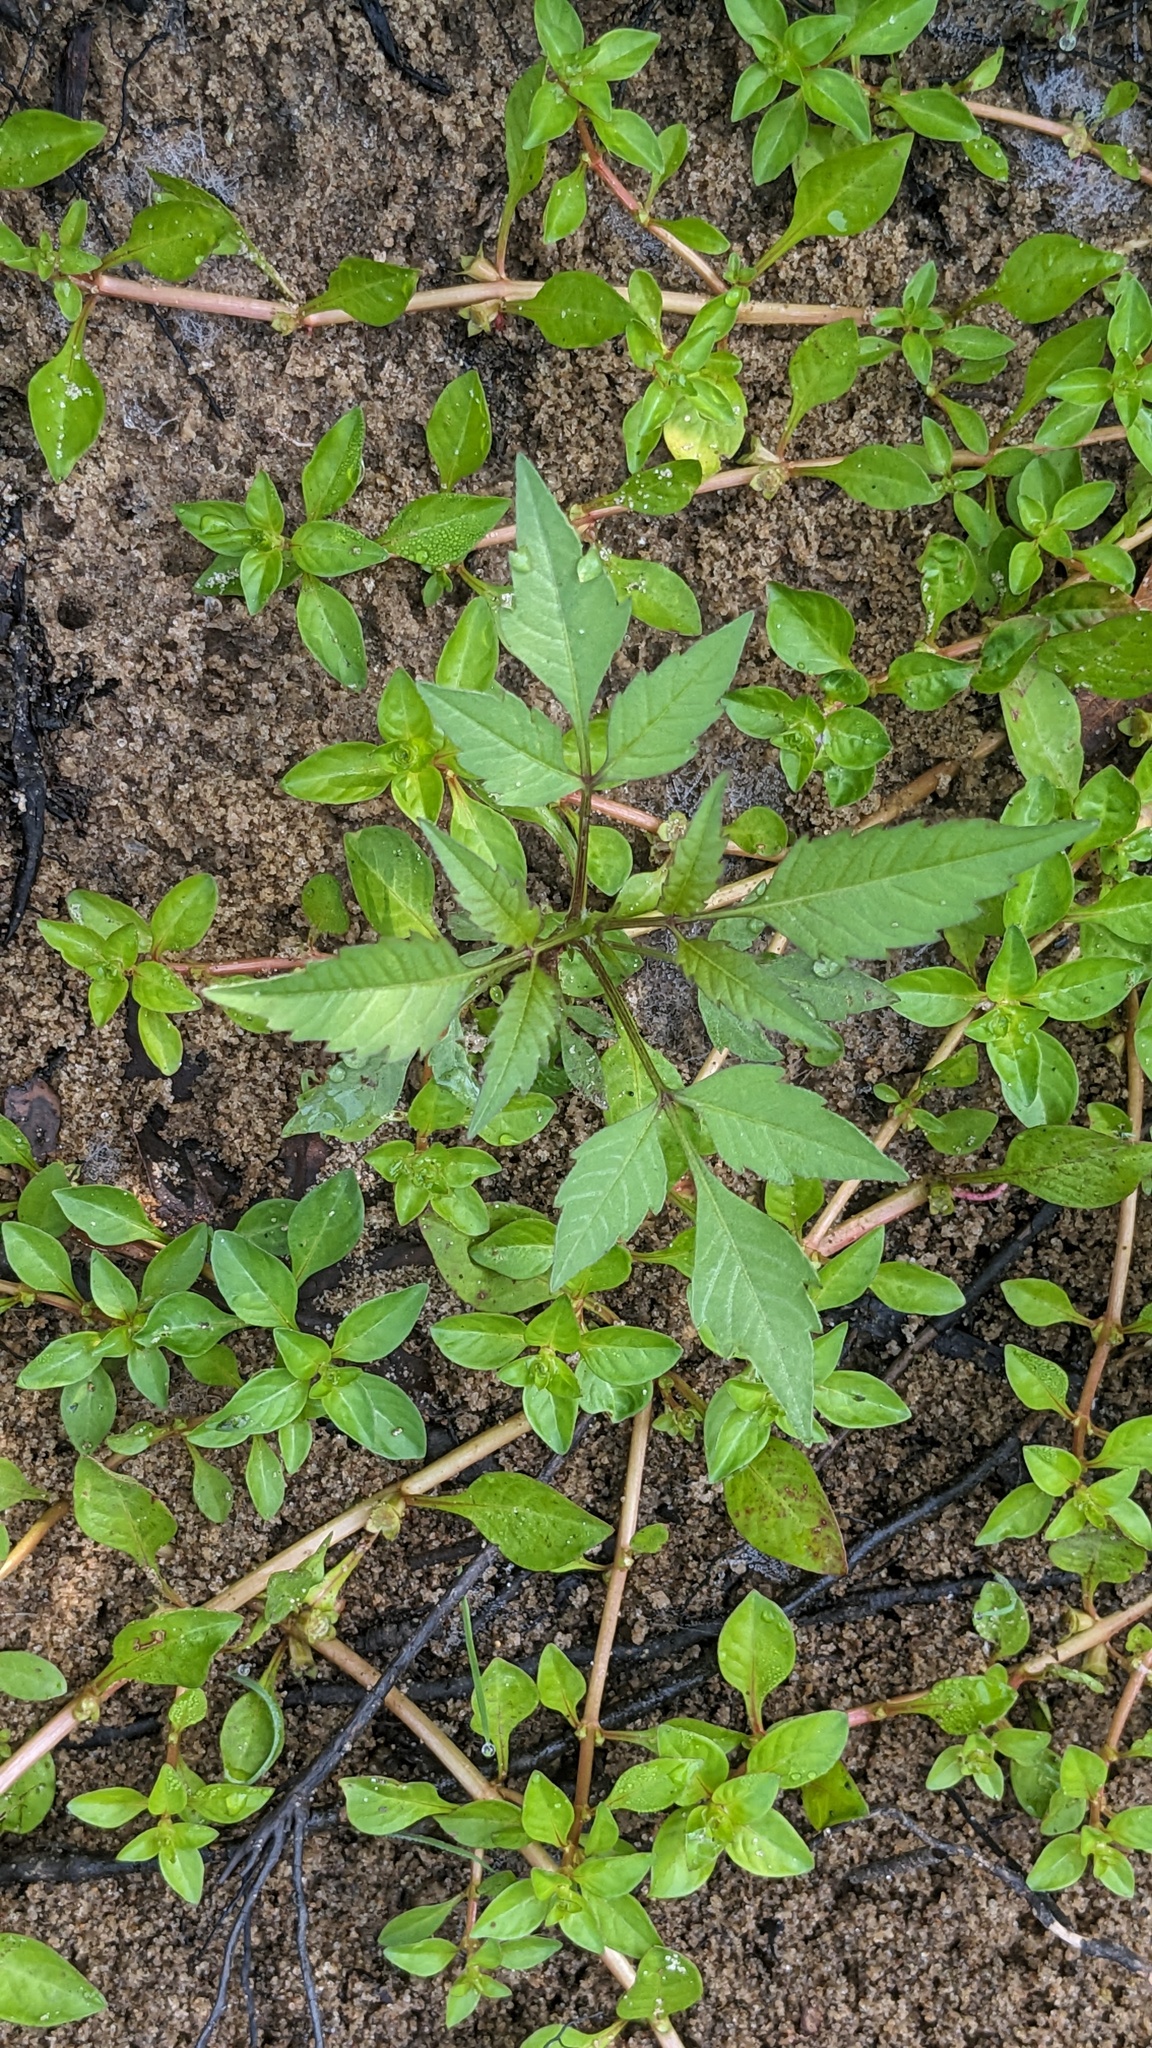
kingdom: Plantae
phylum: Tracheophyta
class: Magnoliopsida
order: Asterales
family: Asteraceae
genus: Bidens
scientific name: Bidens frondosa
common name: Beggarticks
